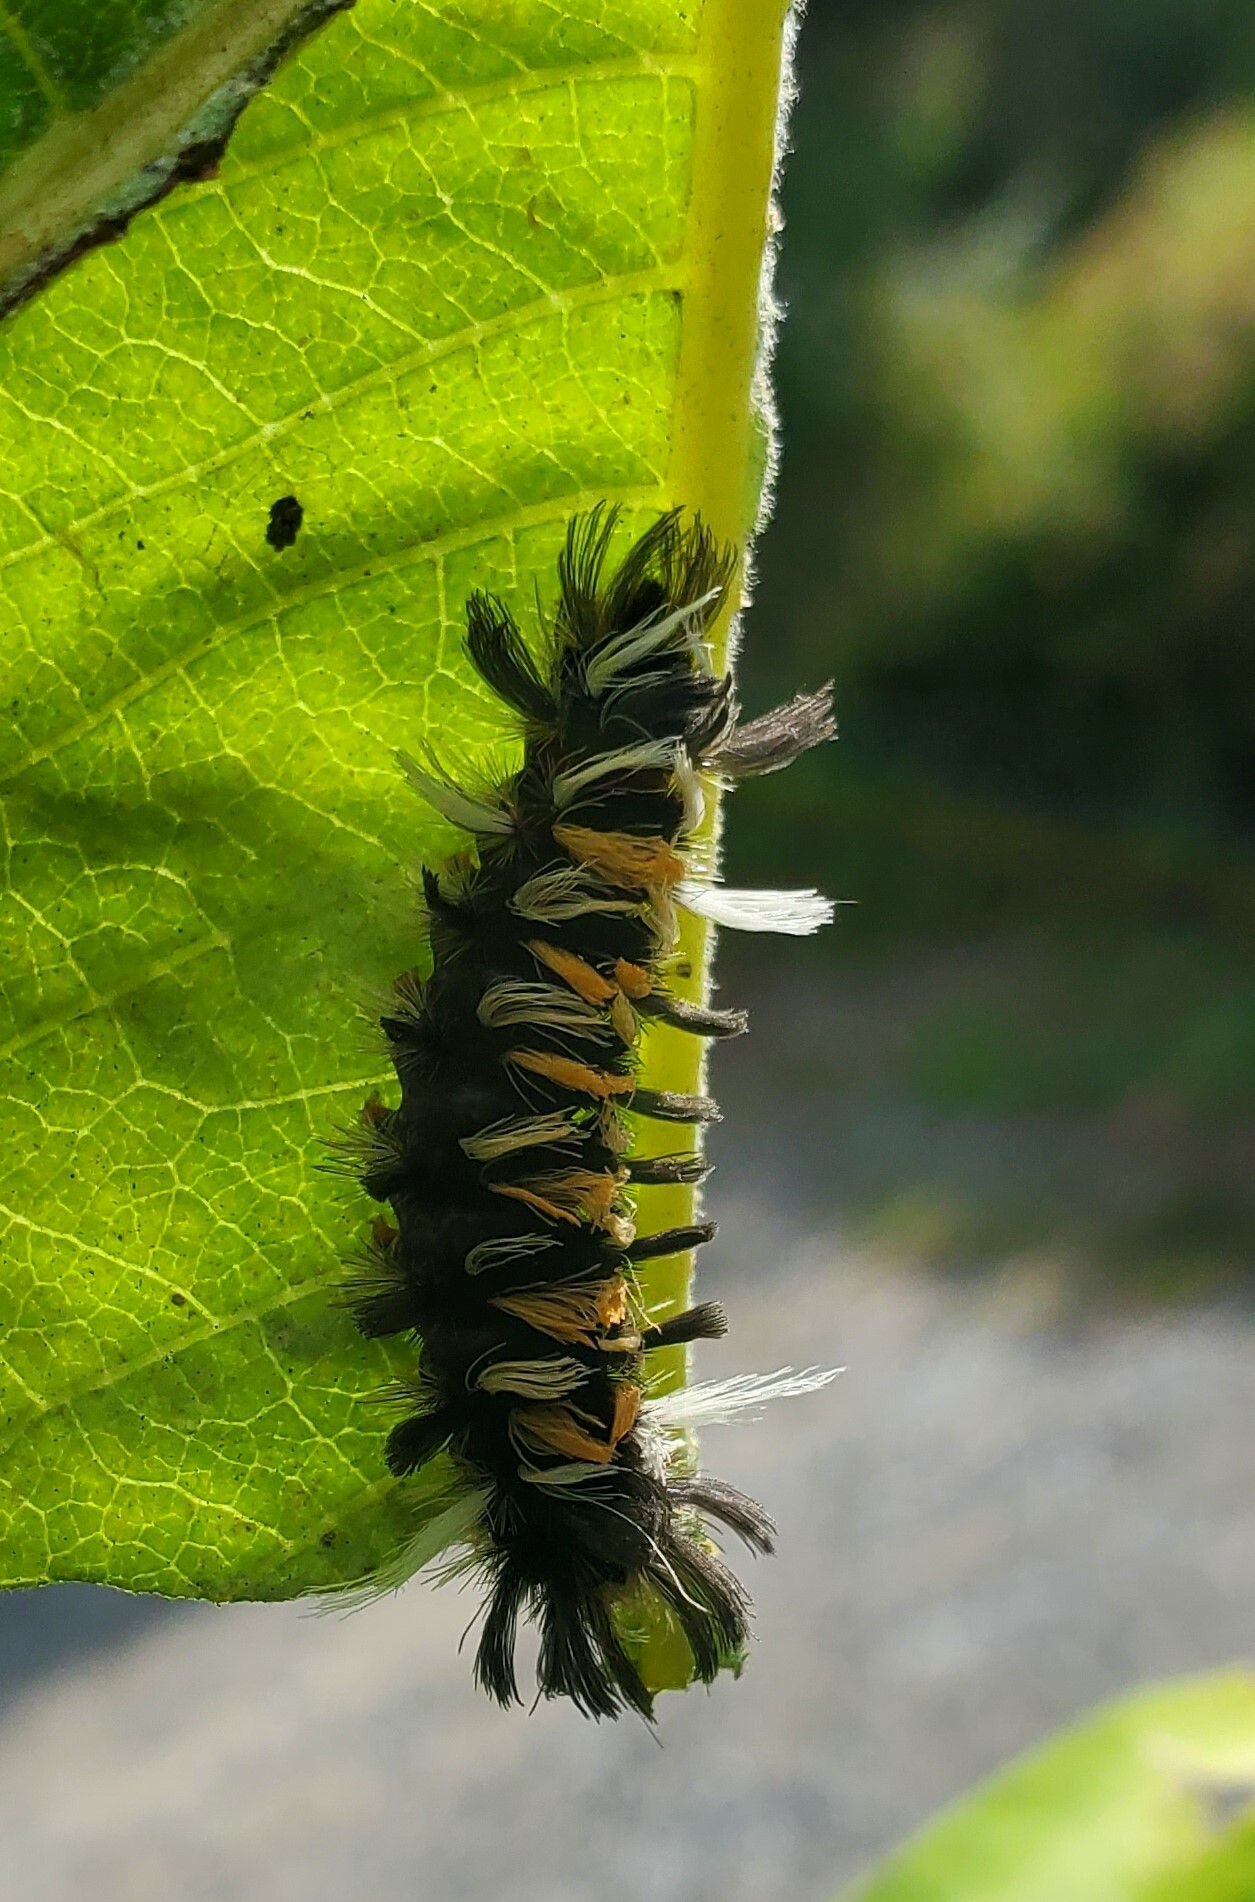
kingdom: Animalia
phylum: Arthropoda
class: Insecta
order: Lepidoptera
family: Erebidae
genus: Euchaetes
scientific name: Euchaetes egle
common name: Milkweed tussock moth
